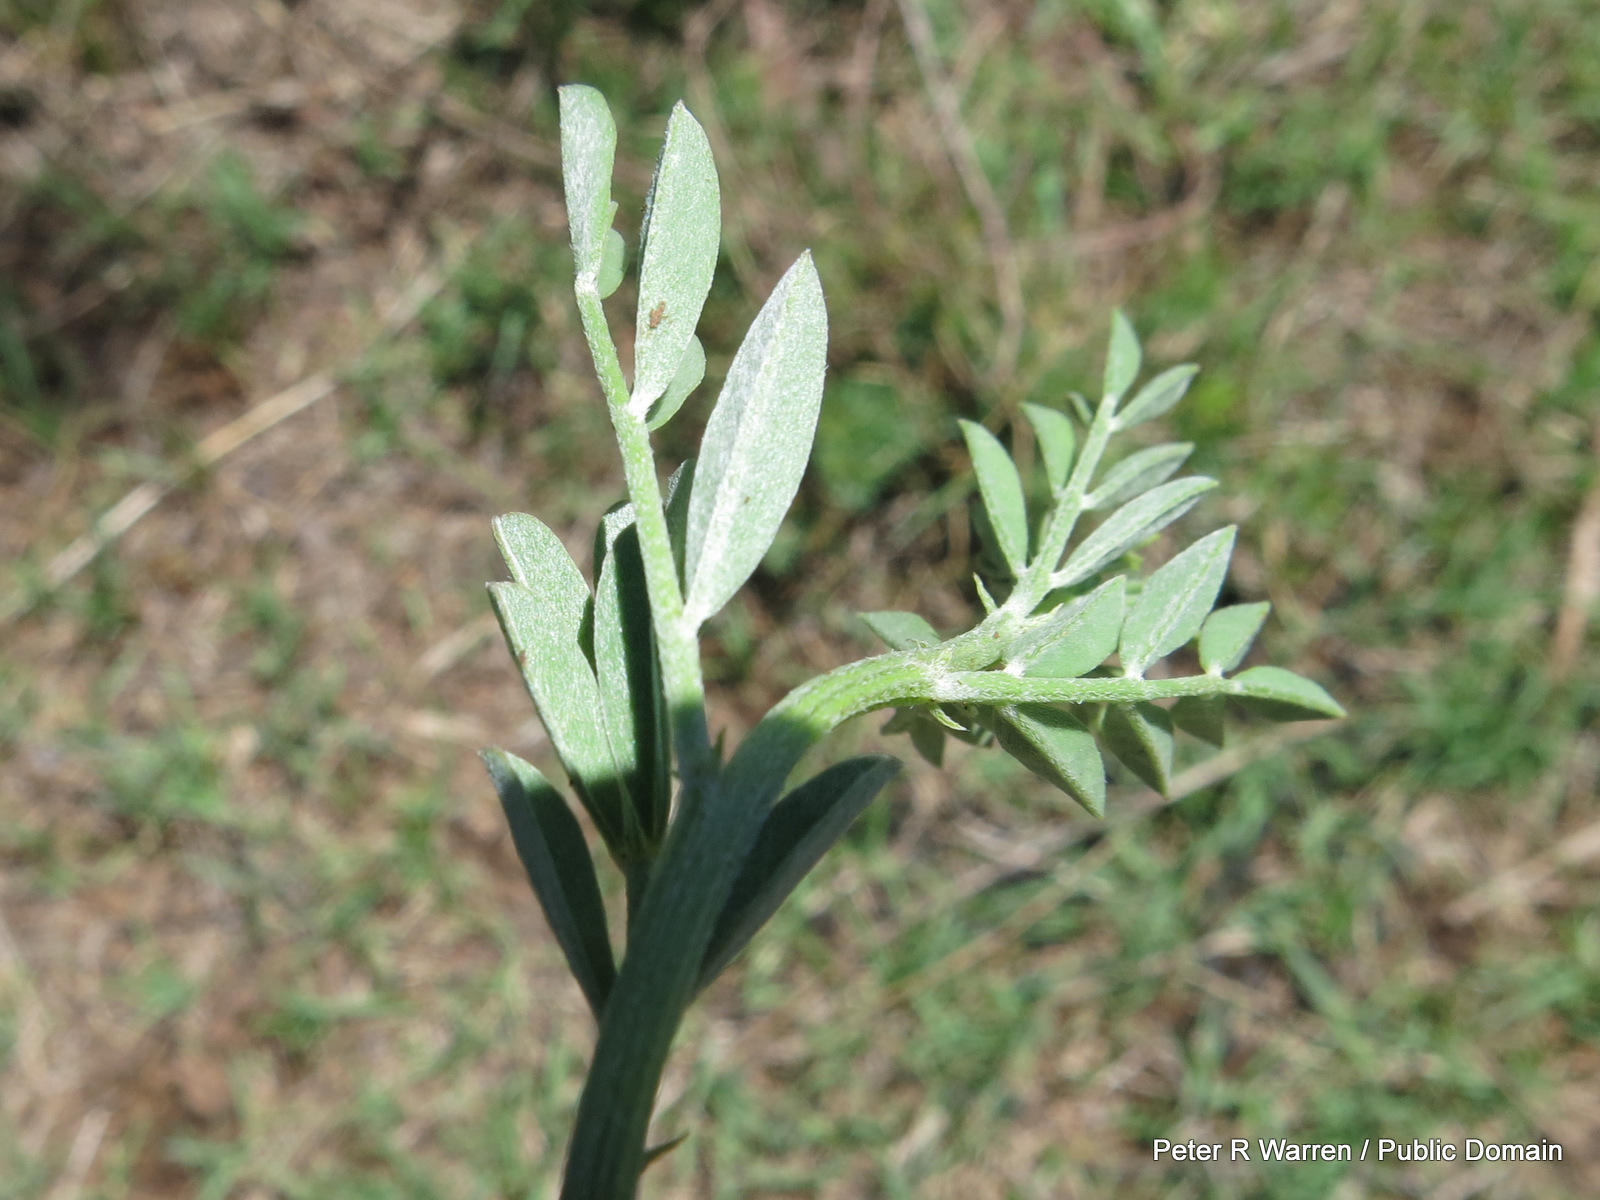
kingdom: Plantae
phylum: Tracheophyta
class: Magnoliopsida
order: Fabales
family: Fabaceae
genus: Indigastrum
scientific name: Indigastrum burkeanum
